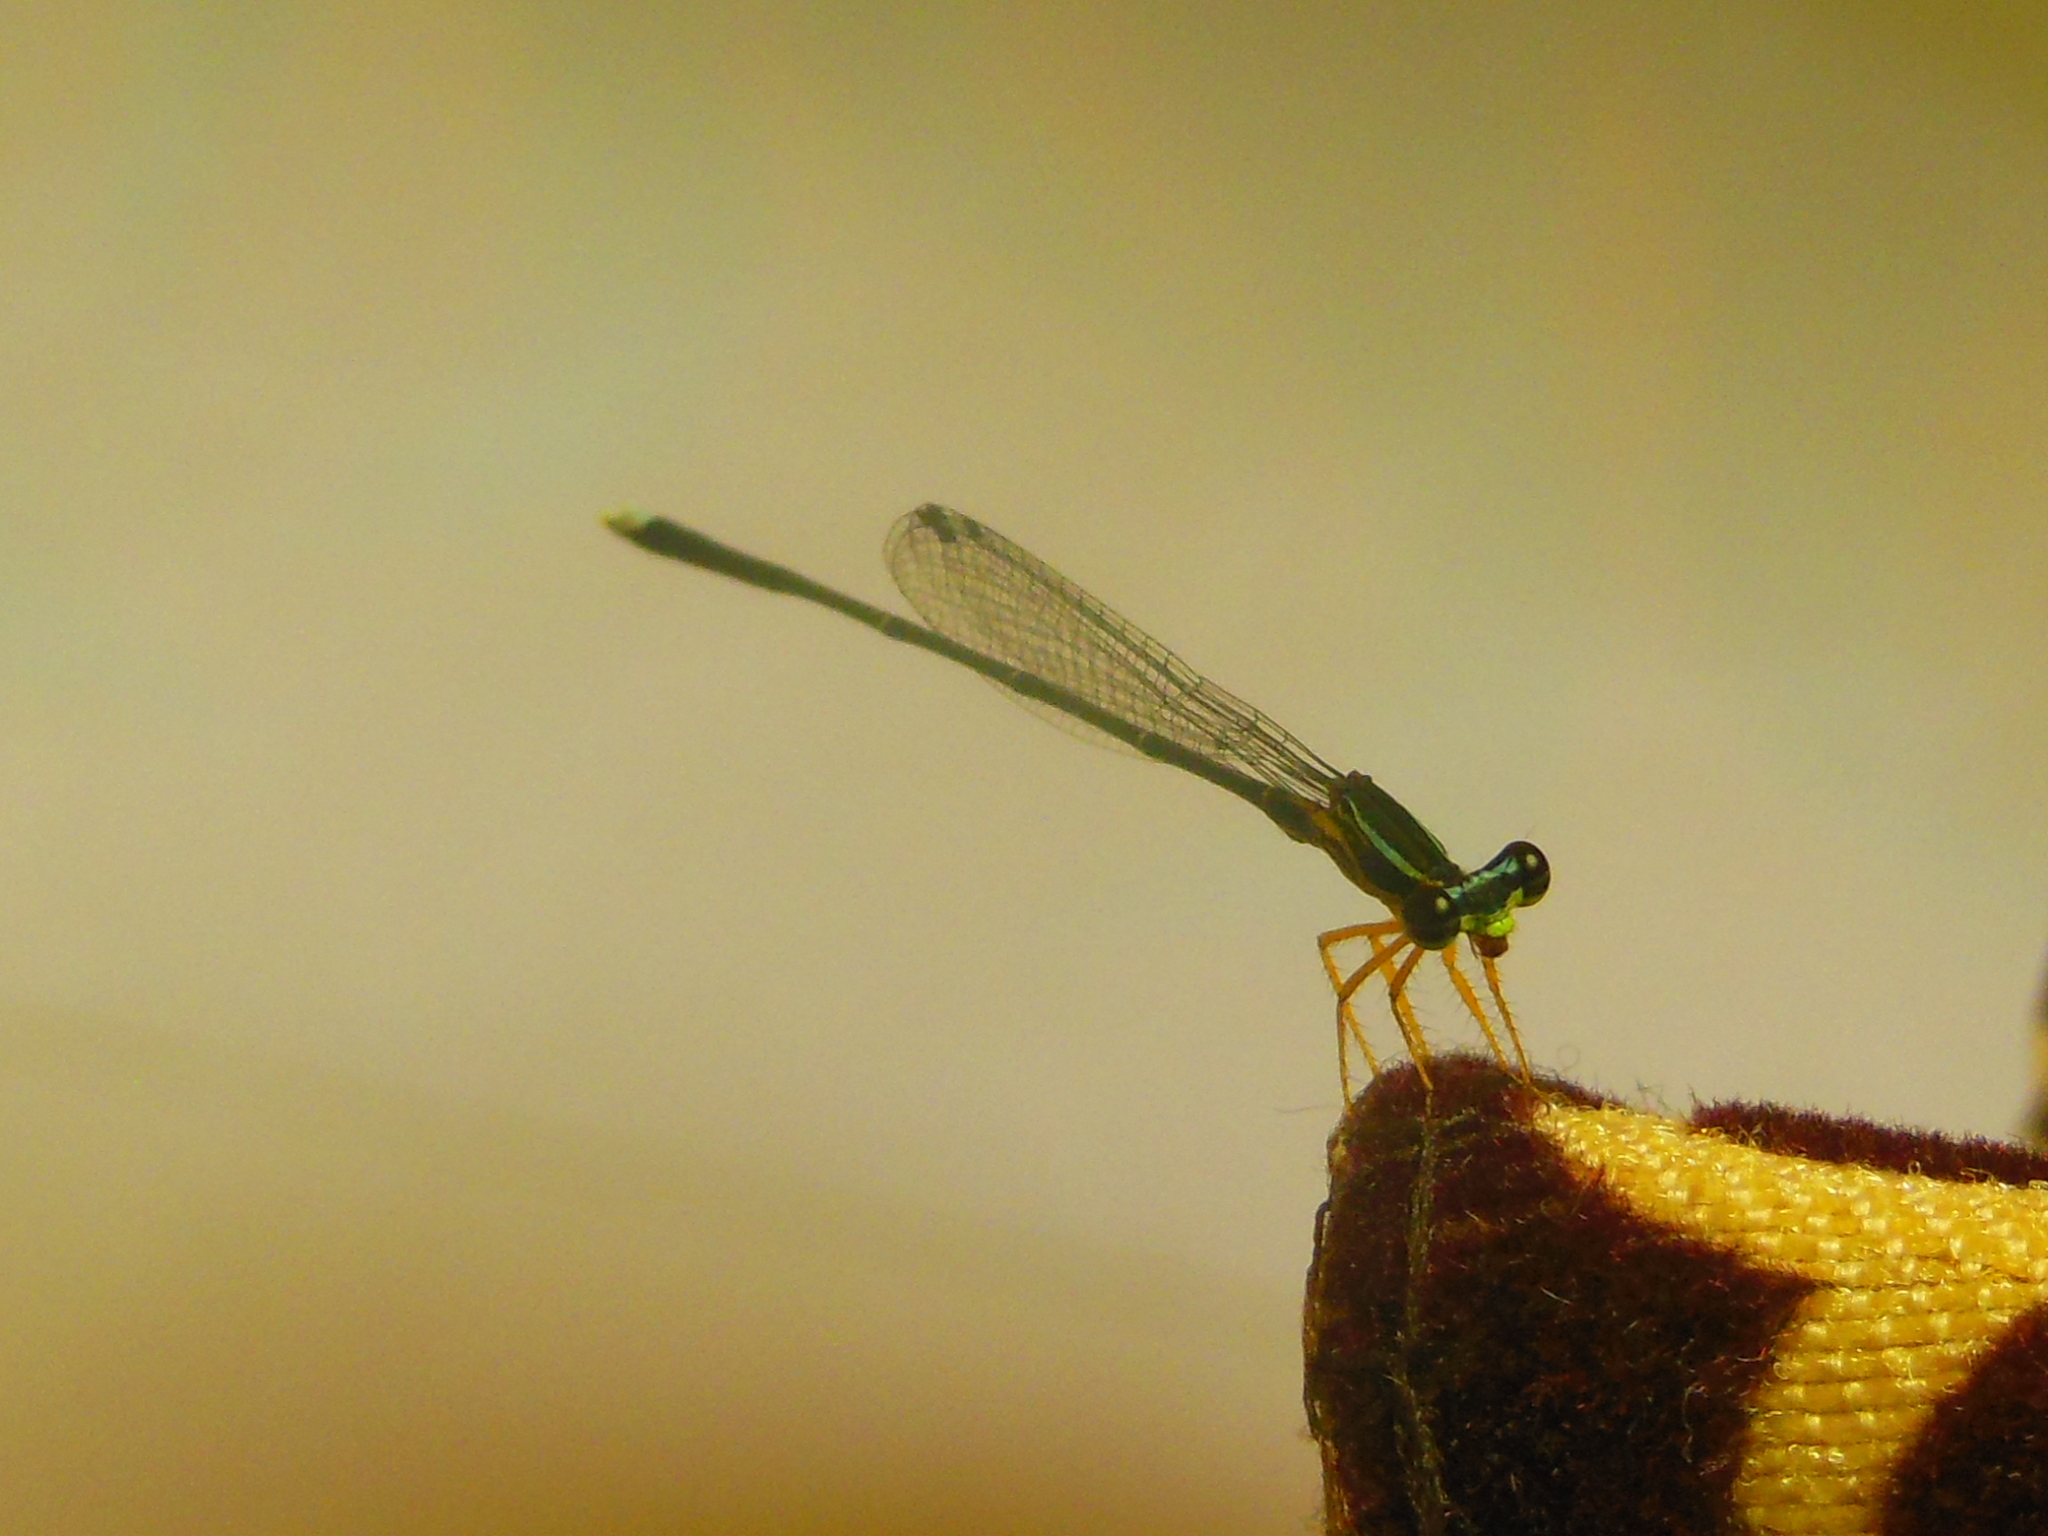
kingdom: Animalia
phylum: Arthropoda
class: Insecta
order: Odonata
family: Platycnemididae
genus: Copera
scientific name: Copera vittata
